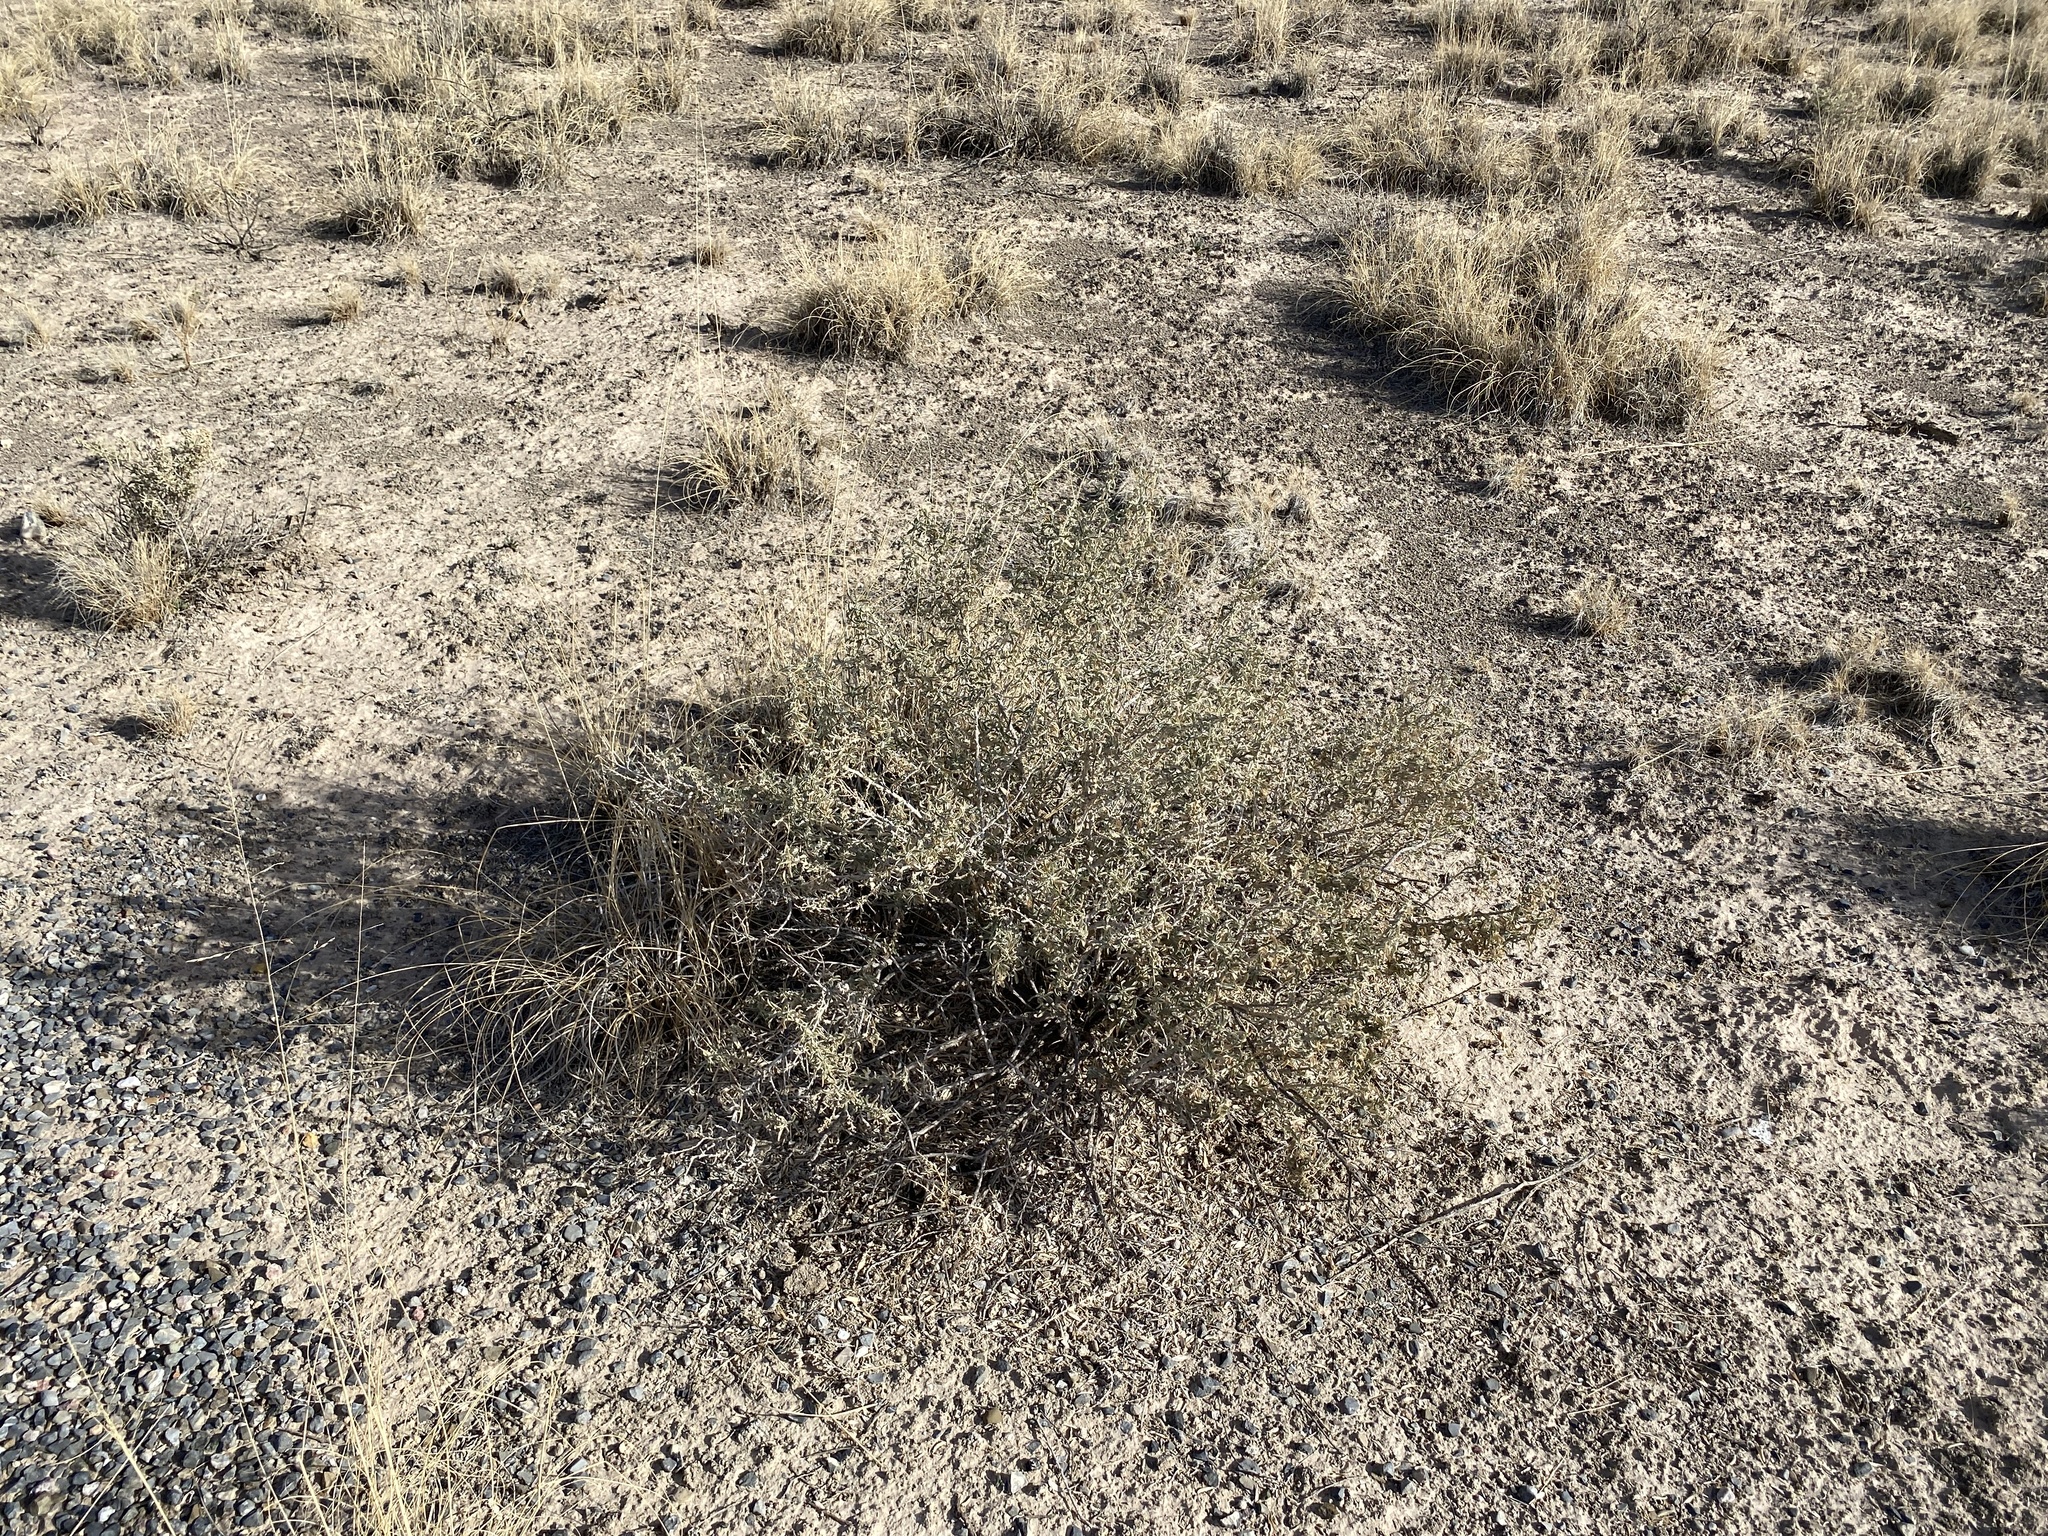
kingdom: Plantae
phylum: Tracheophyta
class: Magnoliopsida
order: Caryophyllales
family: Amaranthaceae
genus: Atriplex
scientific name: Atriplex canescens
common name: Four-wing saltbush
